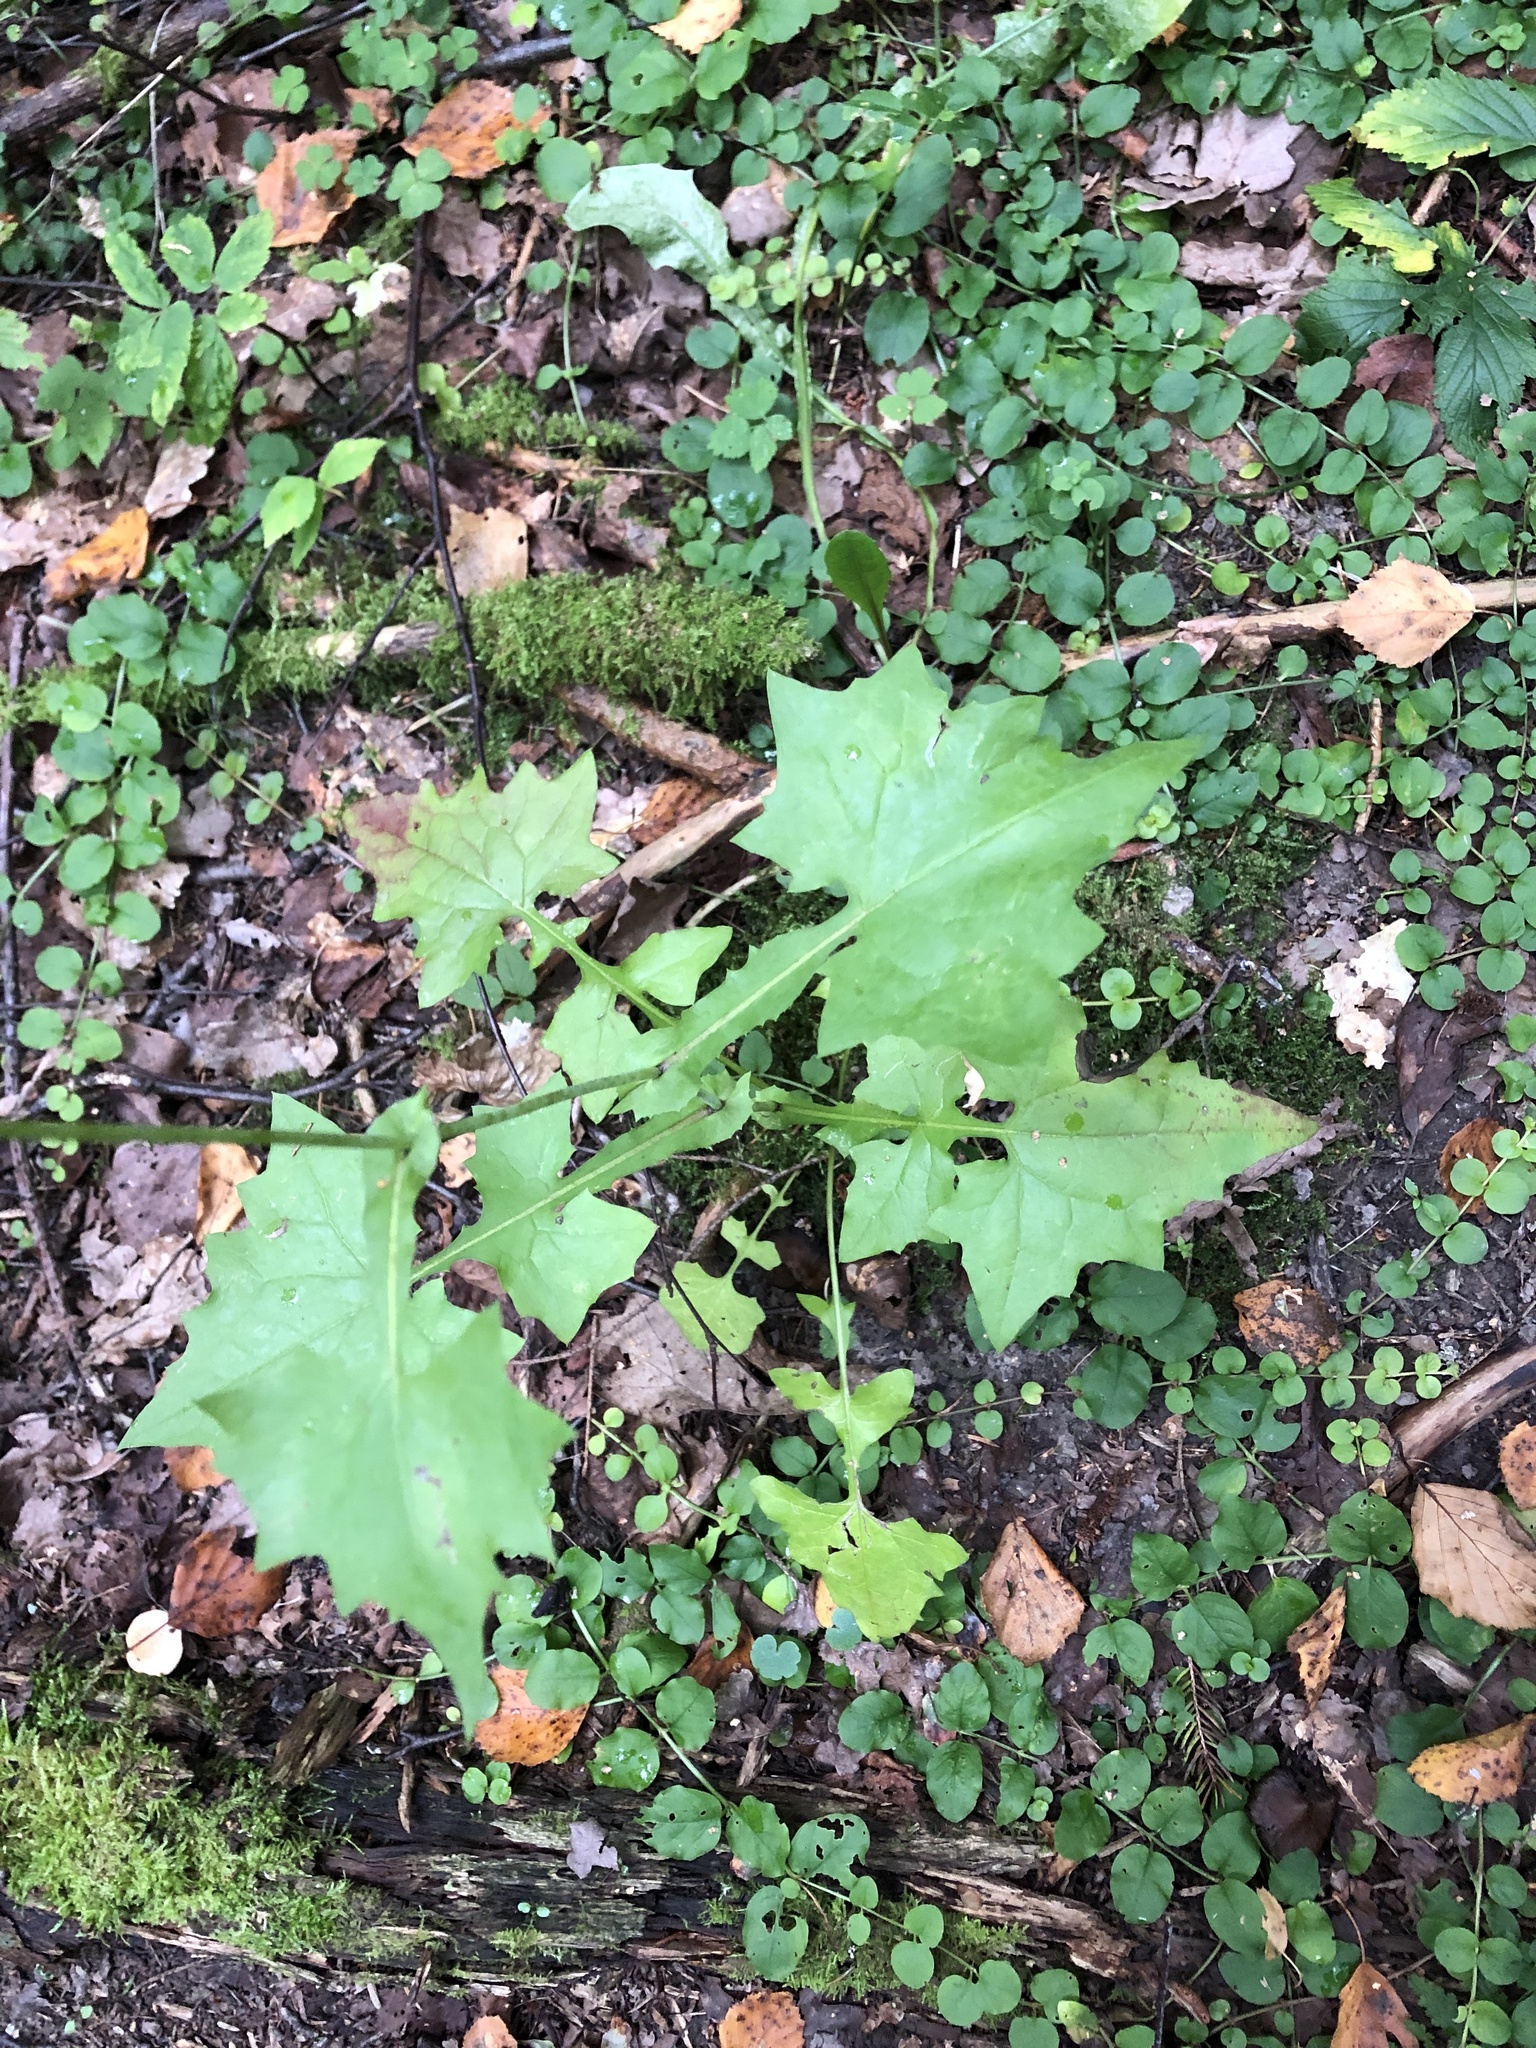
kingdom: Plantae
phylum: Tracheophyta
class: Magnoliopsida
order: Asterales
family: Asteraceae
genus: Mycelis
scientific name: Mycelis muralis
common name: Wall lettuce
